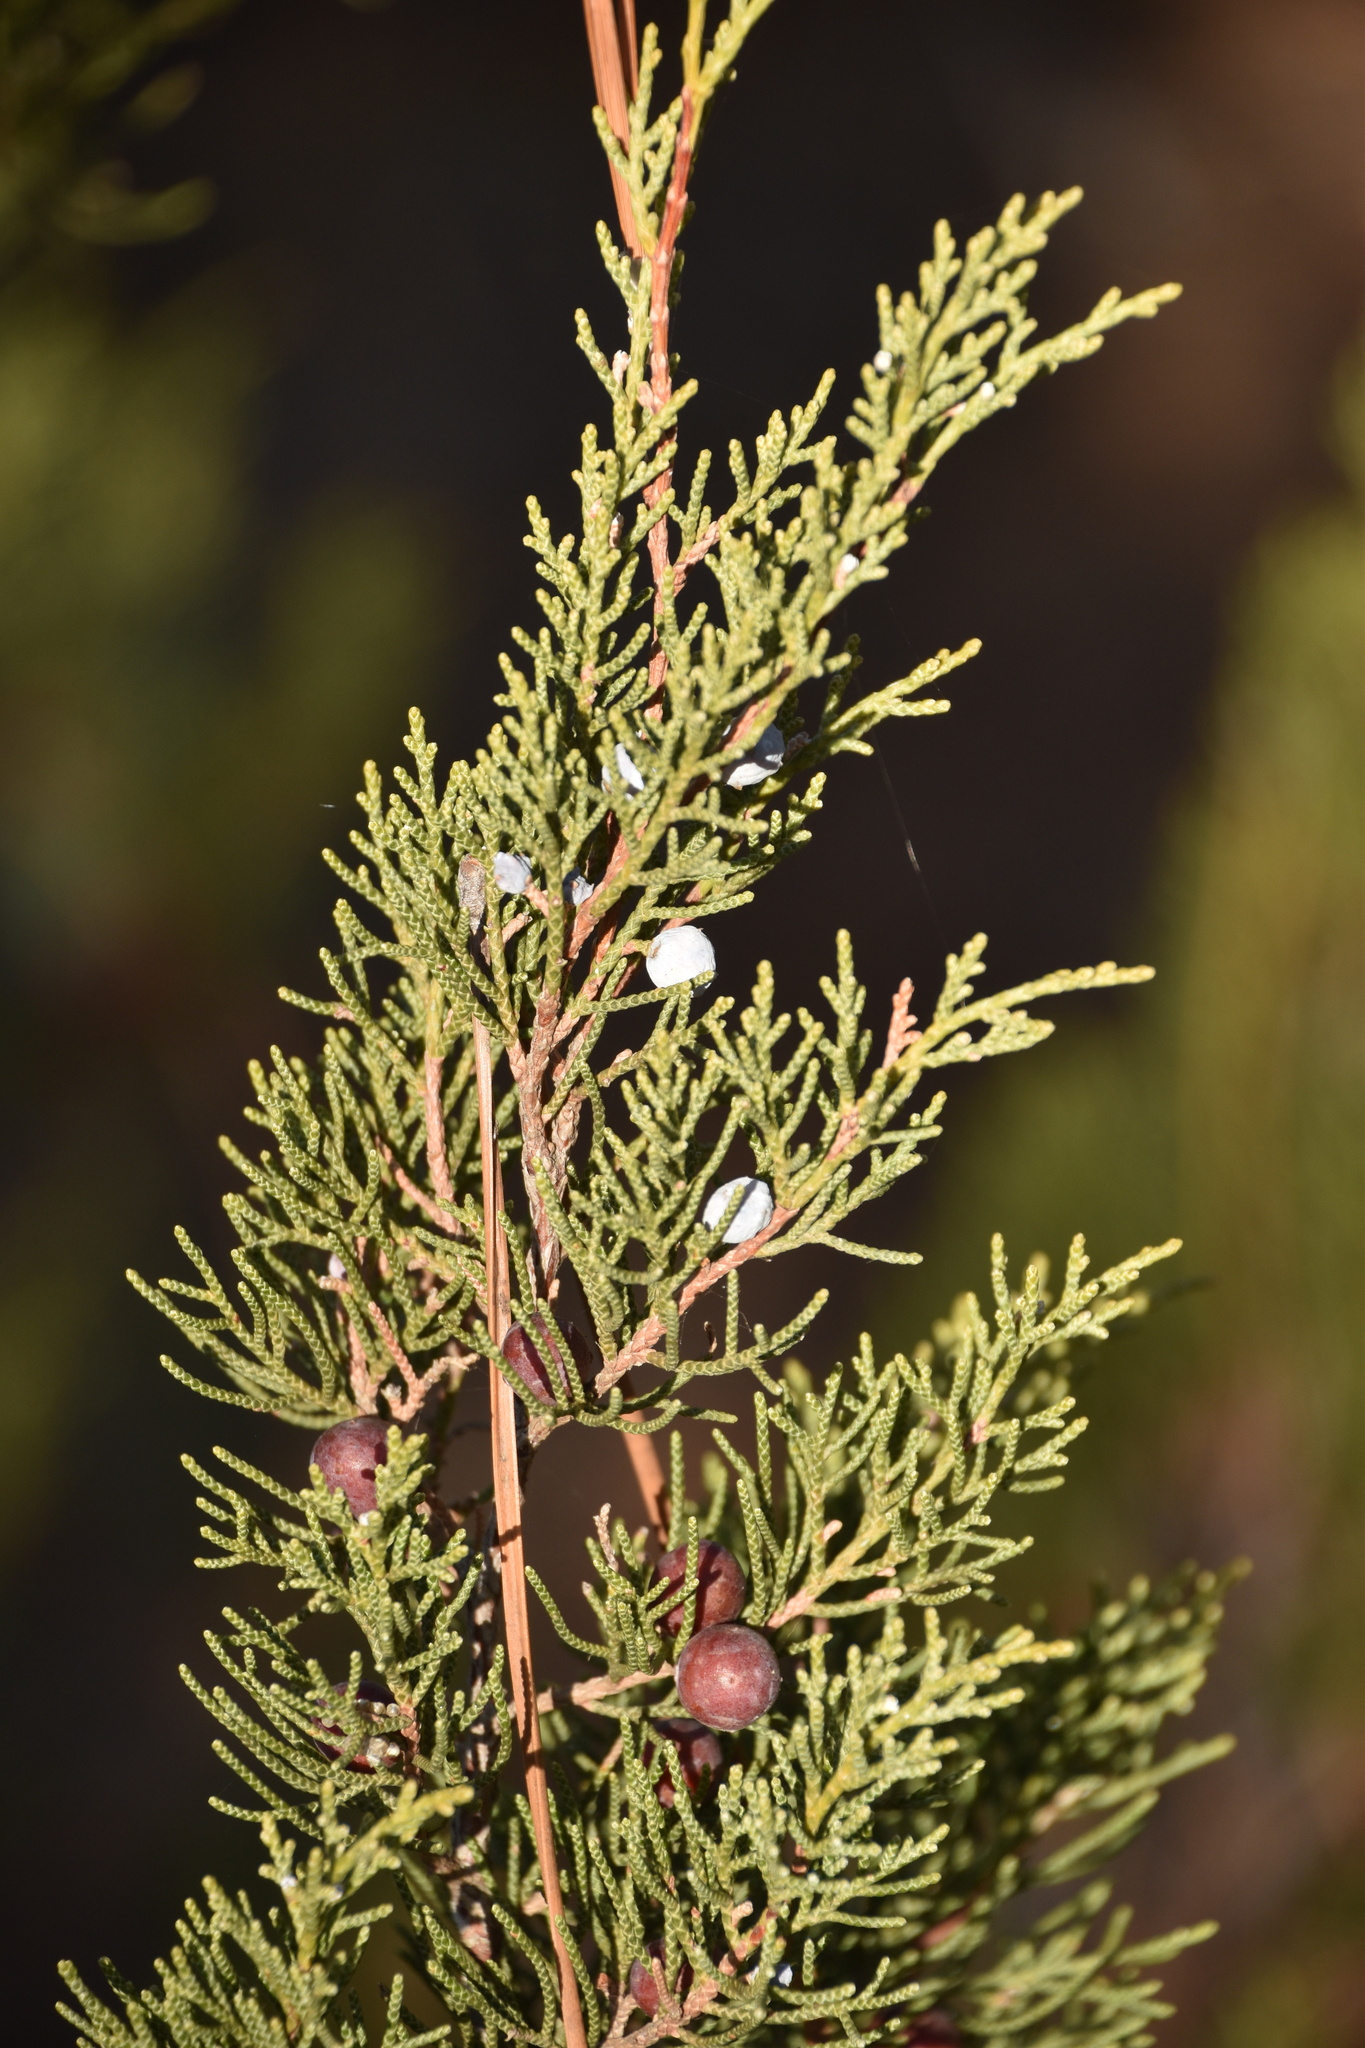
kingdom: Plantae
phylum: Tracheophyta
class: Pinopsida
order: Pinales
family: Cupressaceae
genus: Juniperus
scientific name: Juniperus phoenicea
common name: Phoenician juniper
